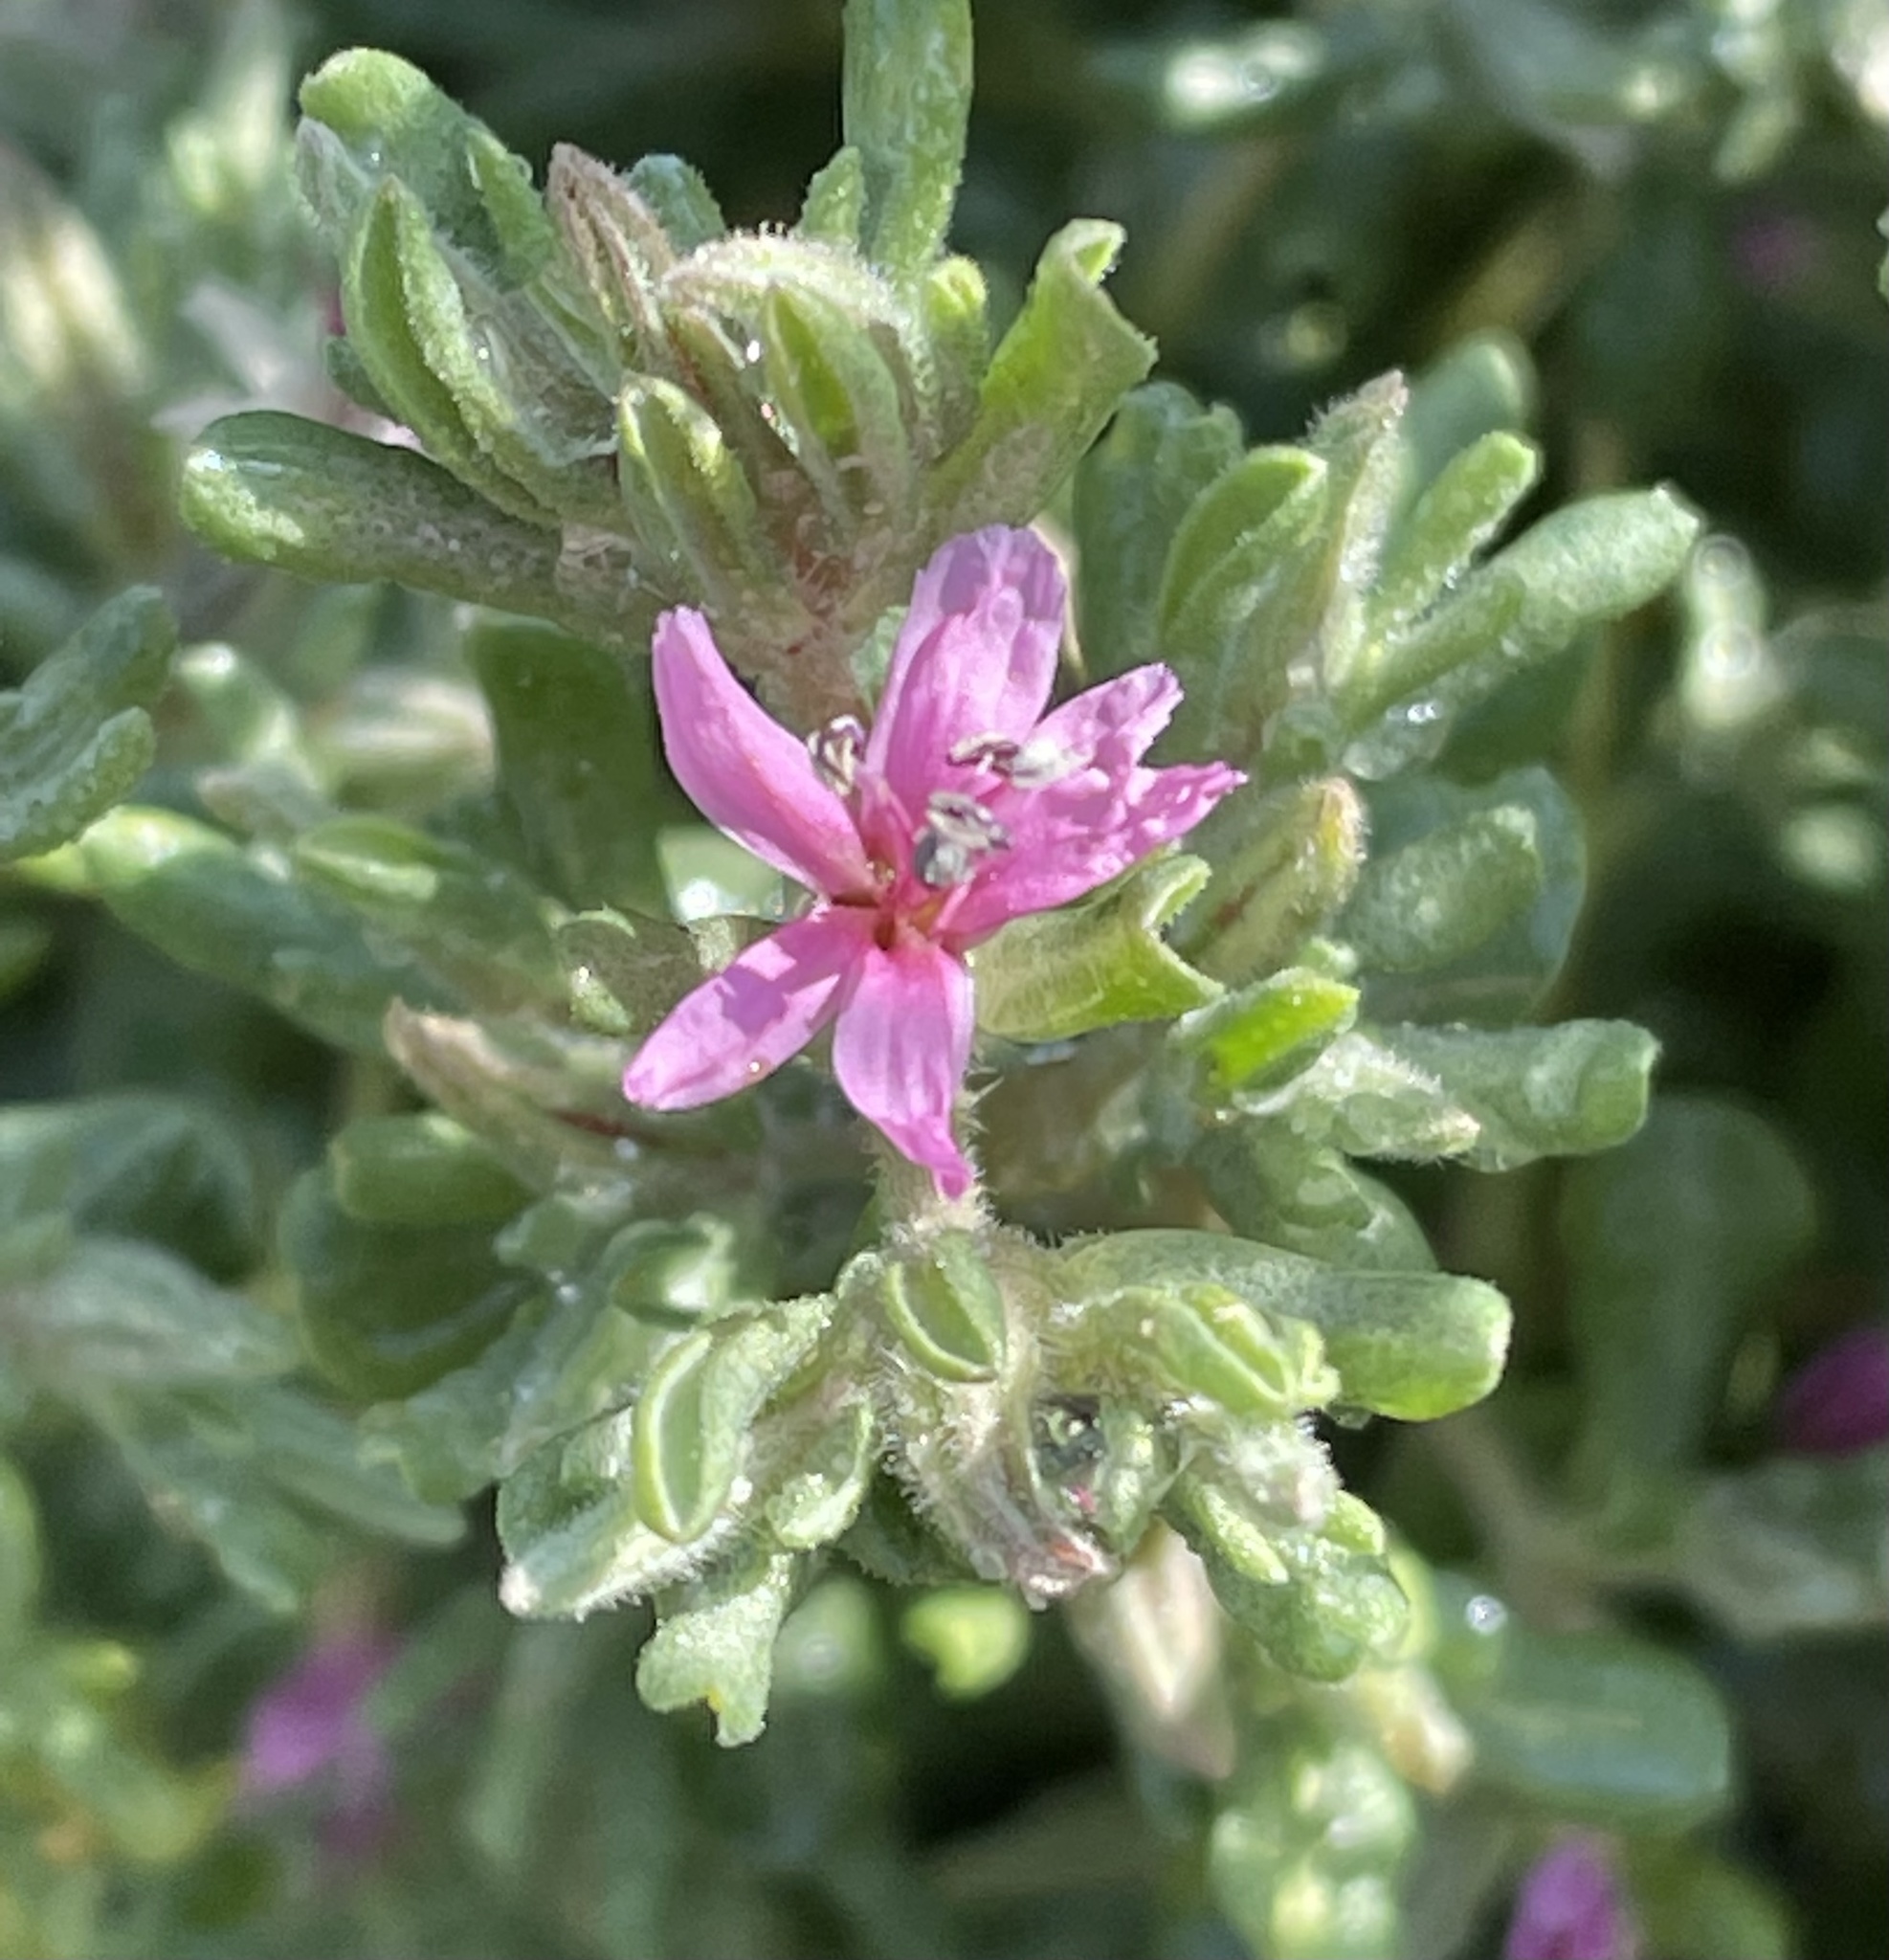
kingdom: Plantae
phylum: Tracheophyta
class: Magnoliopsida
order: Caryophyllales
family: Frankeniaceae
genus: Frankenia
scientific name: Frankenia salina
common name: Alkali seaheath
